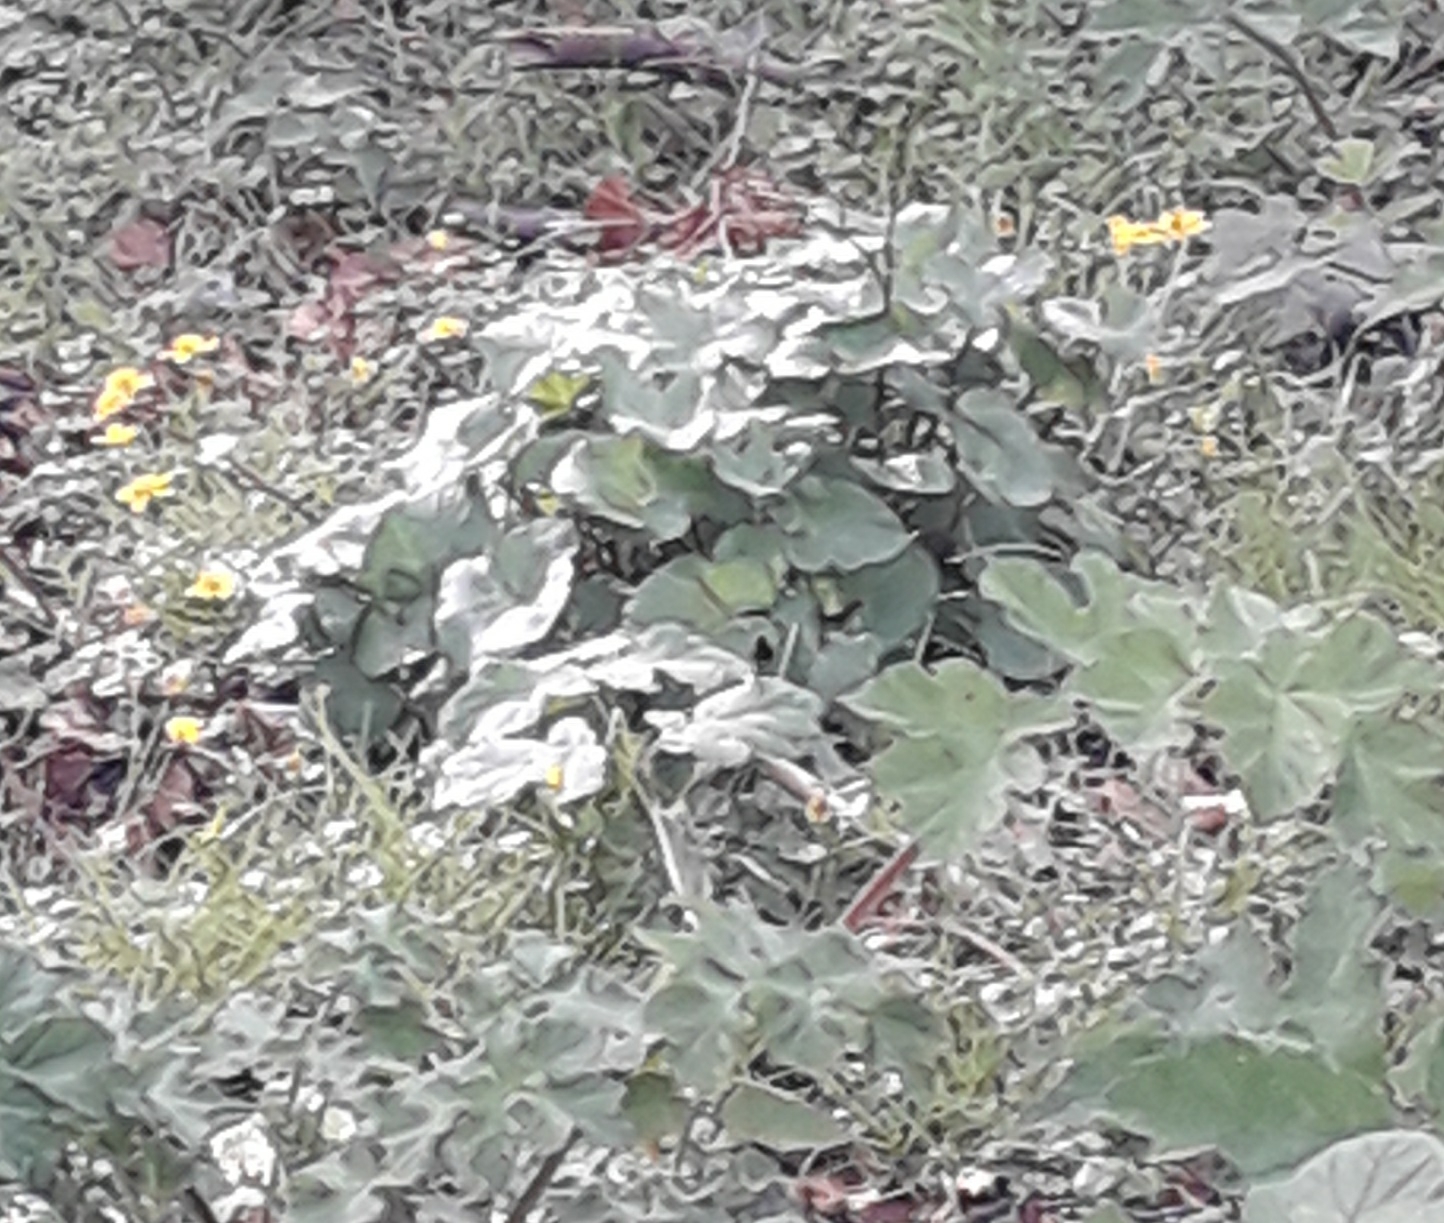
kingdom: Plantae
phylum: Tracheophyta
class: Magnoliopsida
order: Ranunculales
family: Ranunculaceae
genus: Caltha
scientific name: Caltha palustris
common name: Marsh marigold
